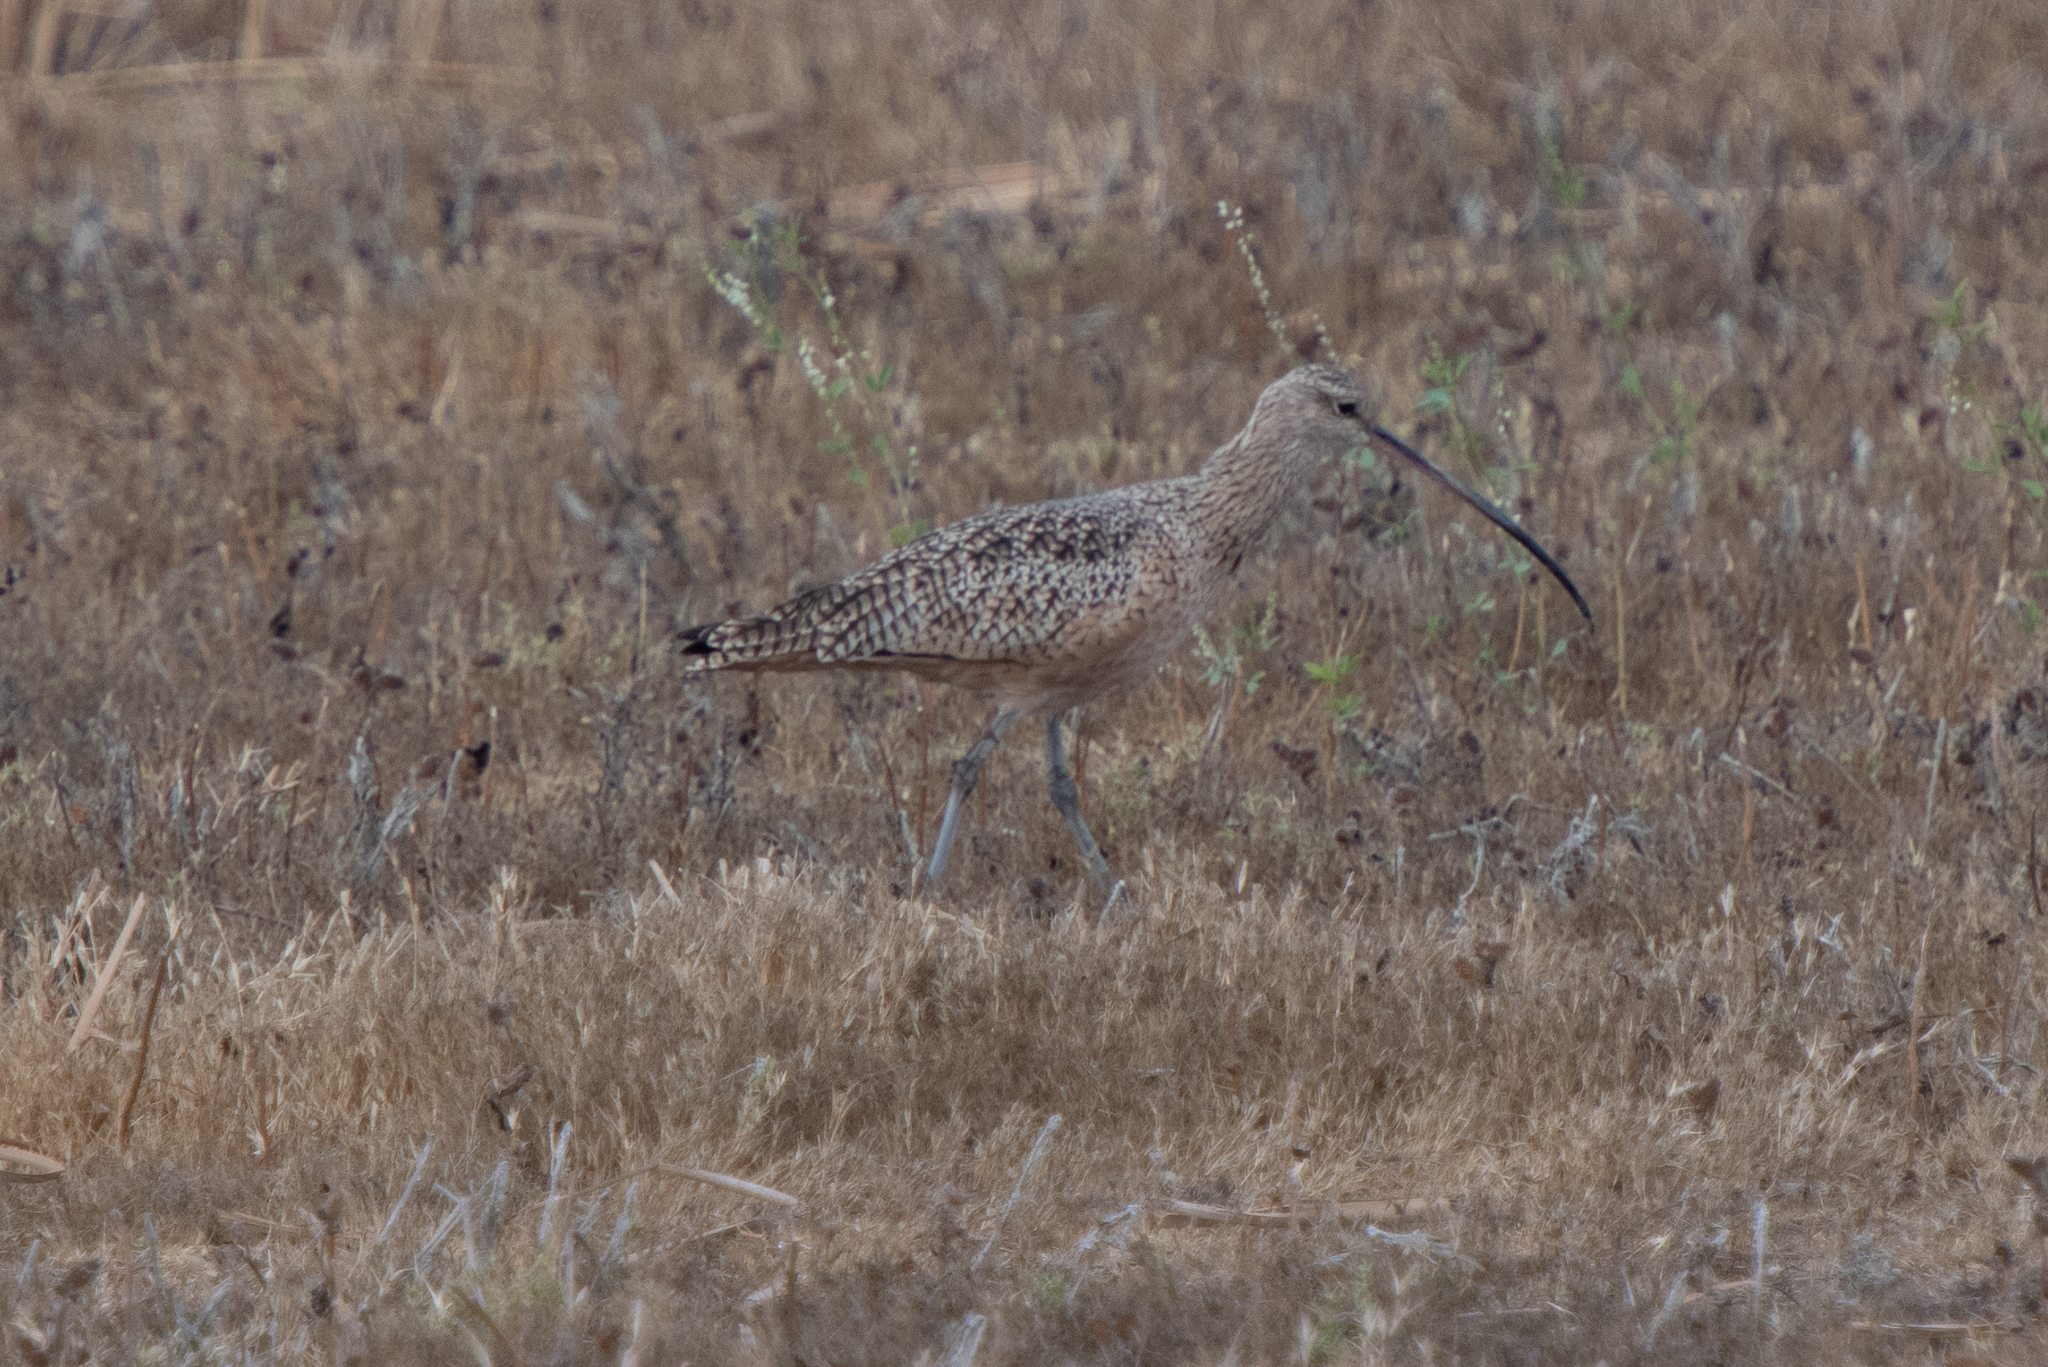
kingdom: Animalia
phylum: Chordata
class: Aves
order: Charadriiformes
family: Scolopacidae
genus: Numenius
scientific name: Numenius americanus
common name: Long-billed curlew
